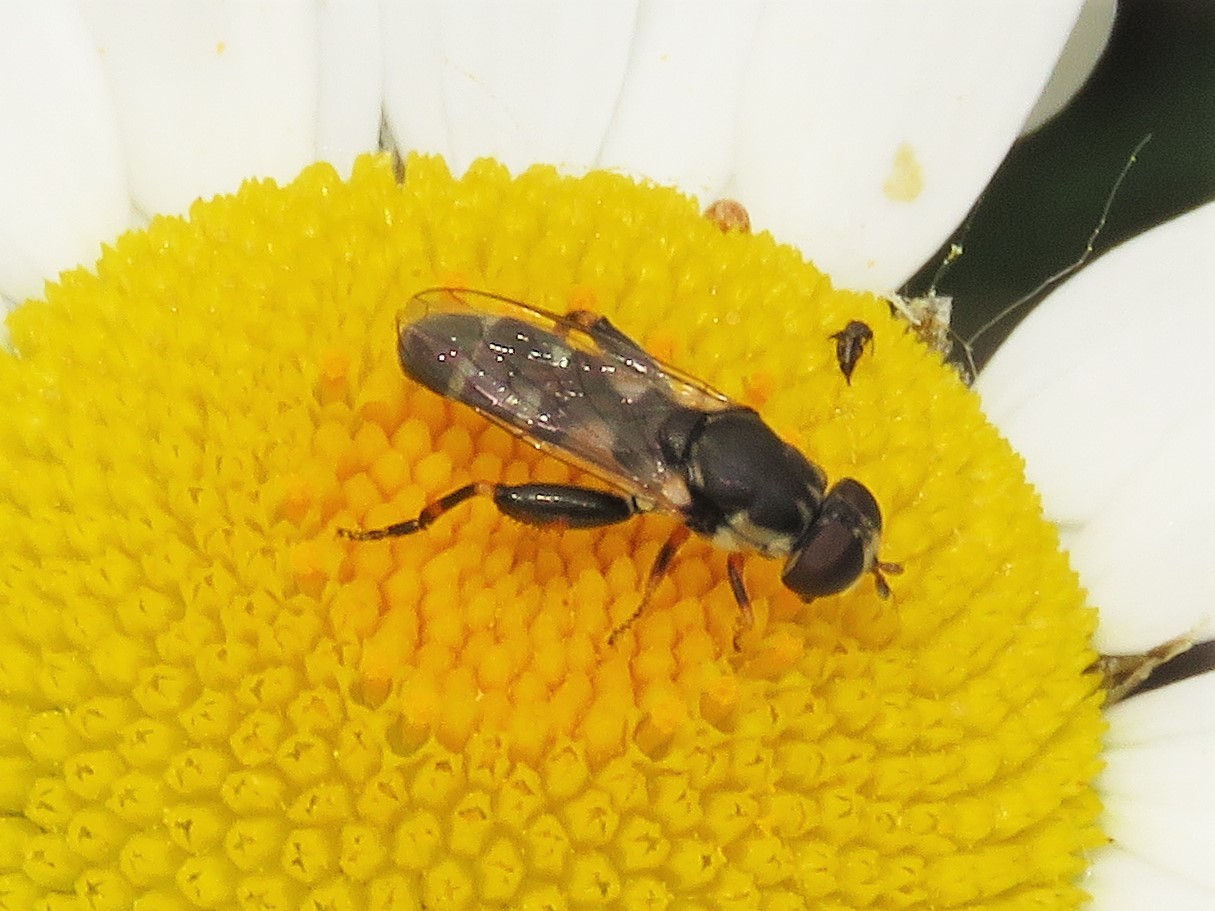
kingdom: Animalia
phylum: Arthropoda
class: Insecta
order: Diptera
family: Syrphidae
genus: Syritta
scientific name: Syritta pipiens
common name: Hover fly
